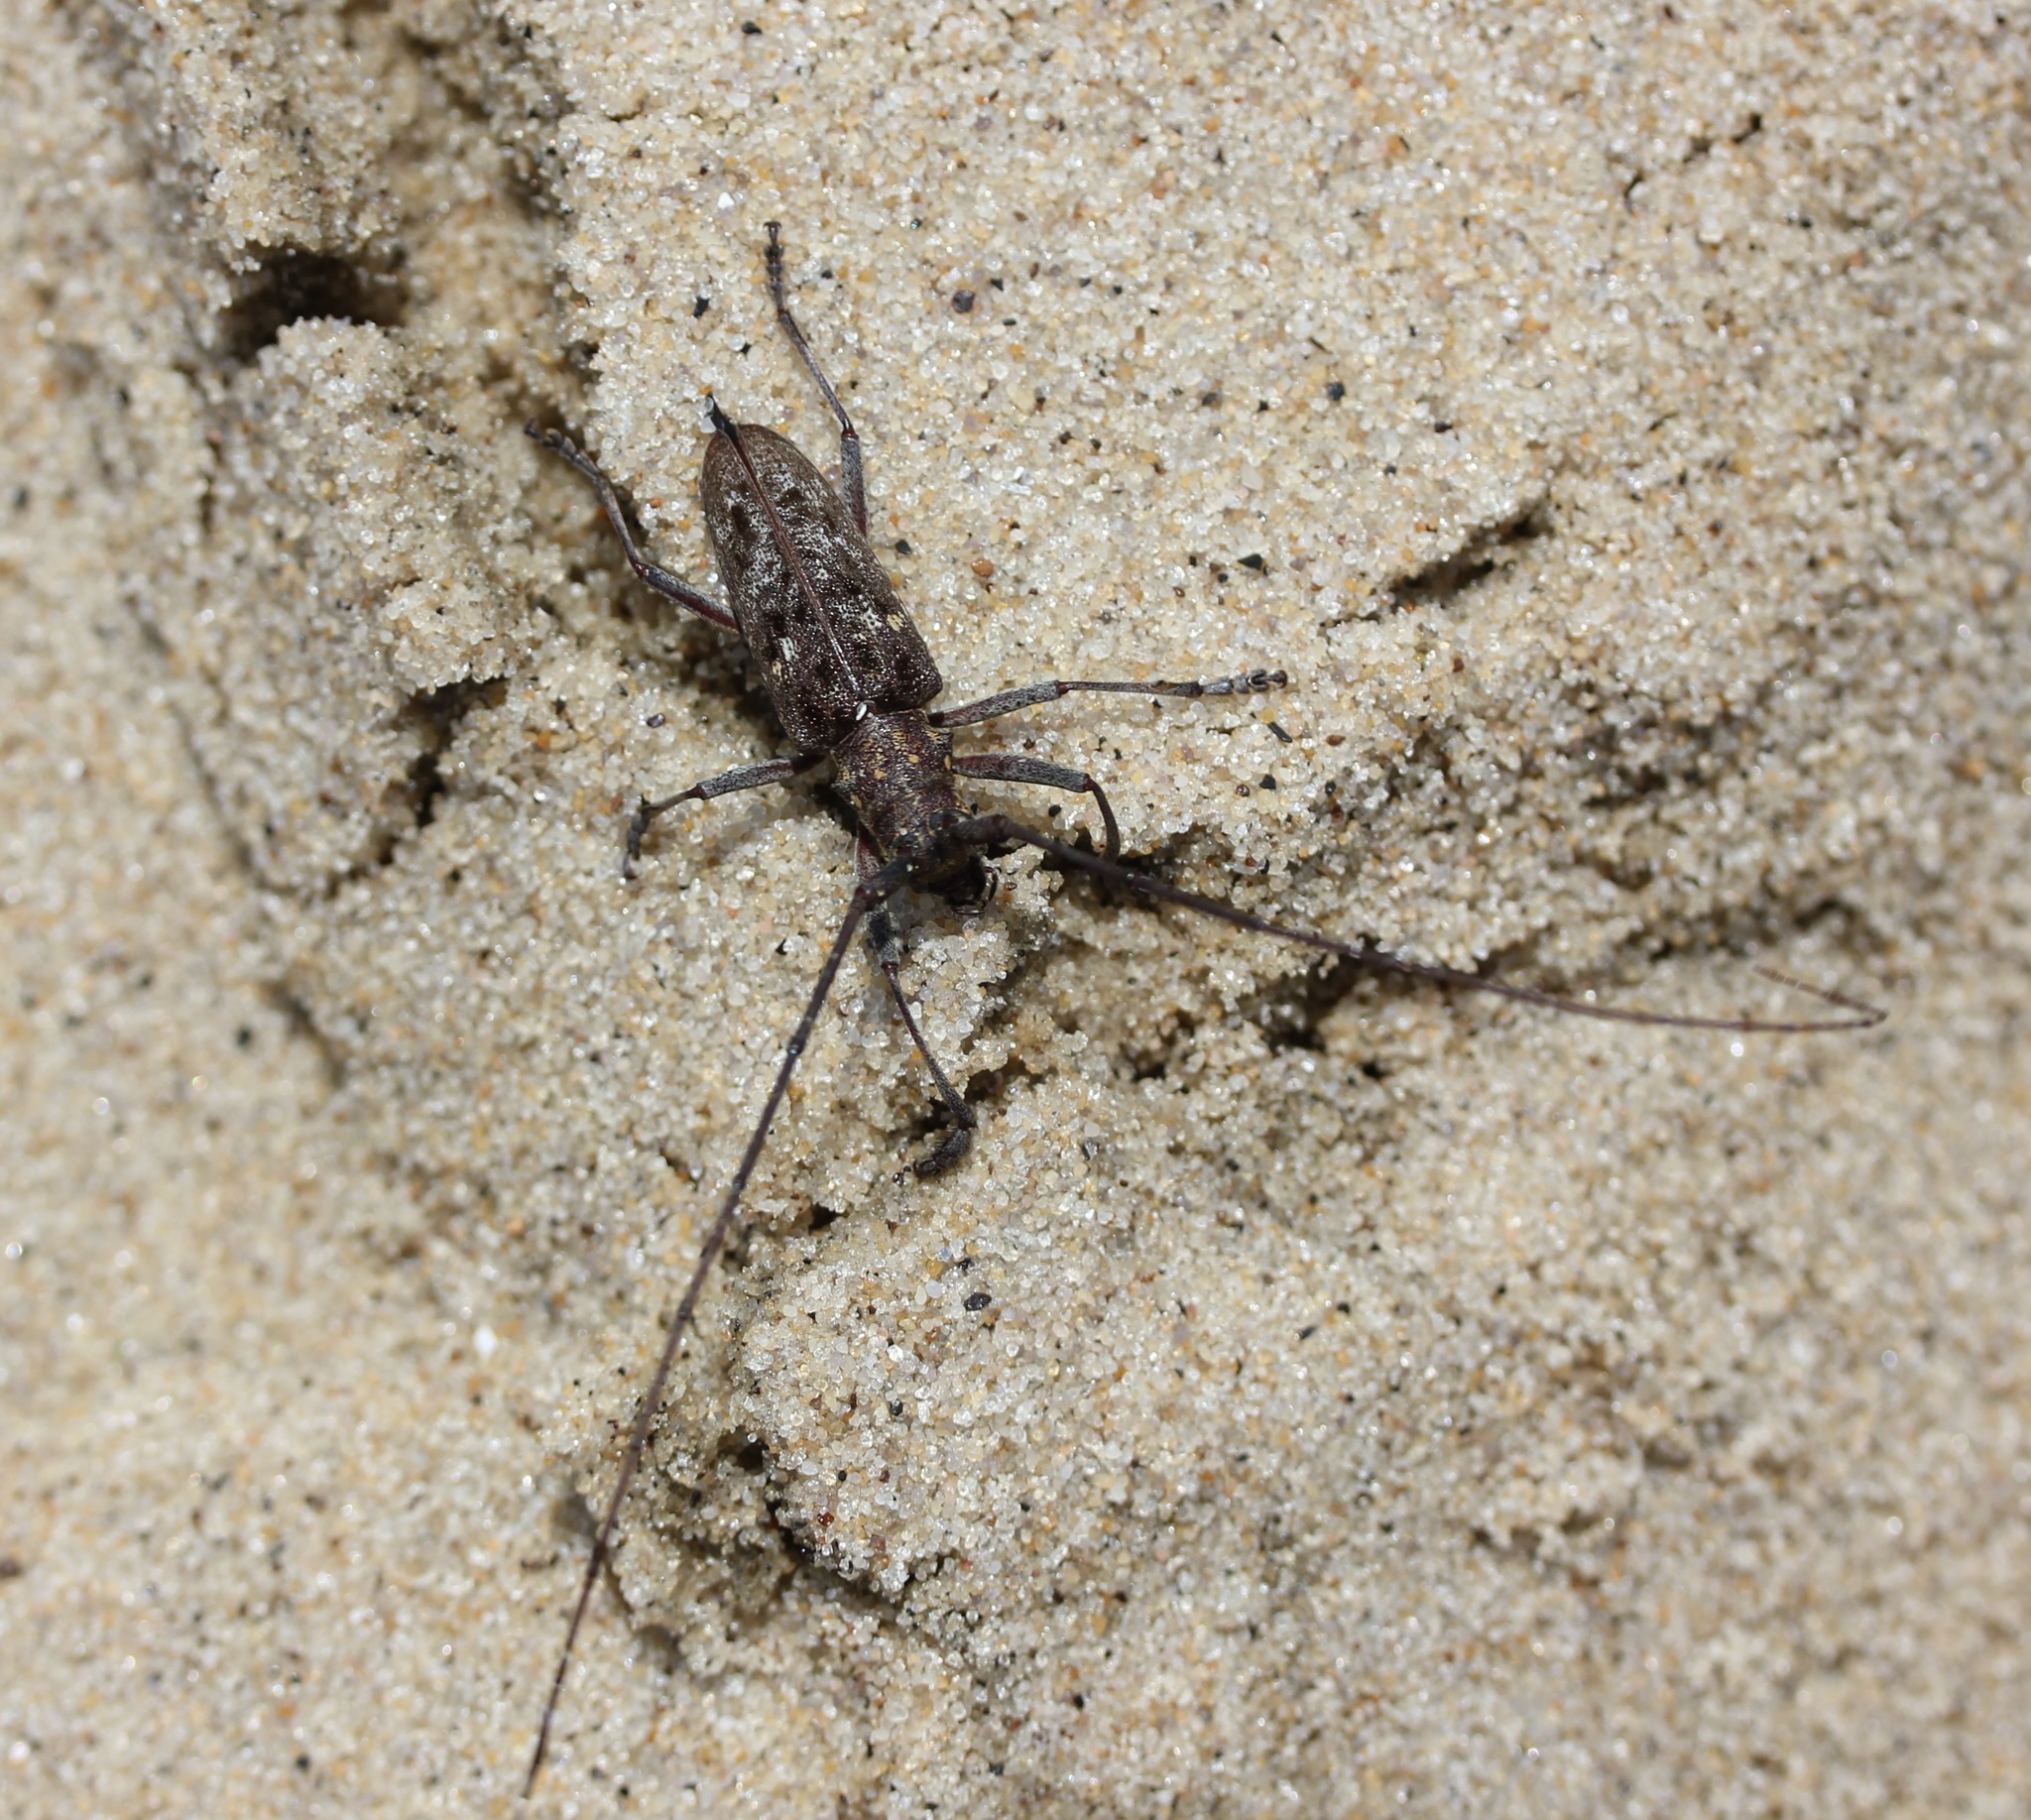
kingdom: Animalia
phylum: Arthropoda
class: Insecta
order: Coleoptera
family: Cerambycidae
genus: Monochamus
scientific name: Monochamus carolinensis
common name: Carolina pine sawyer
